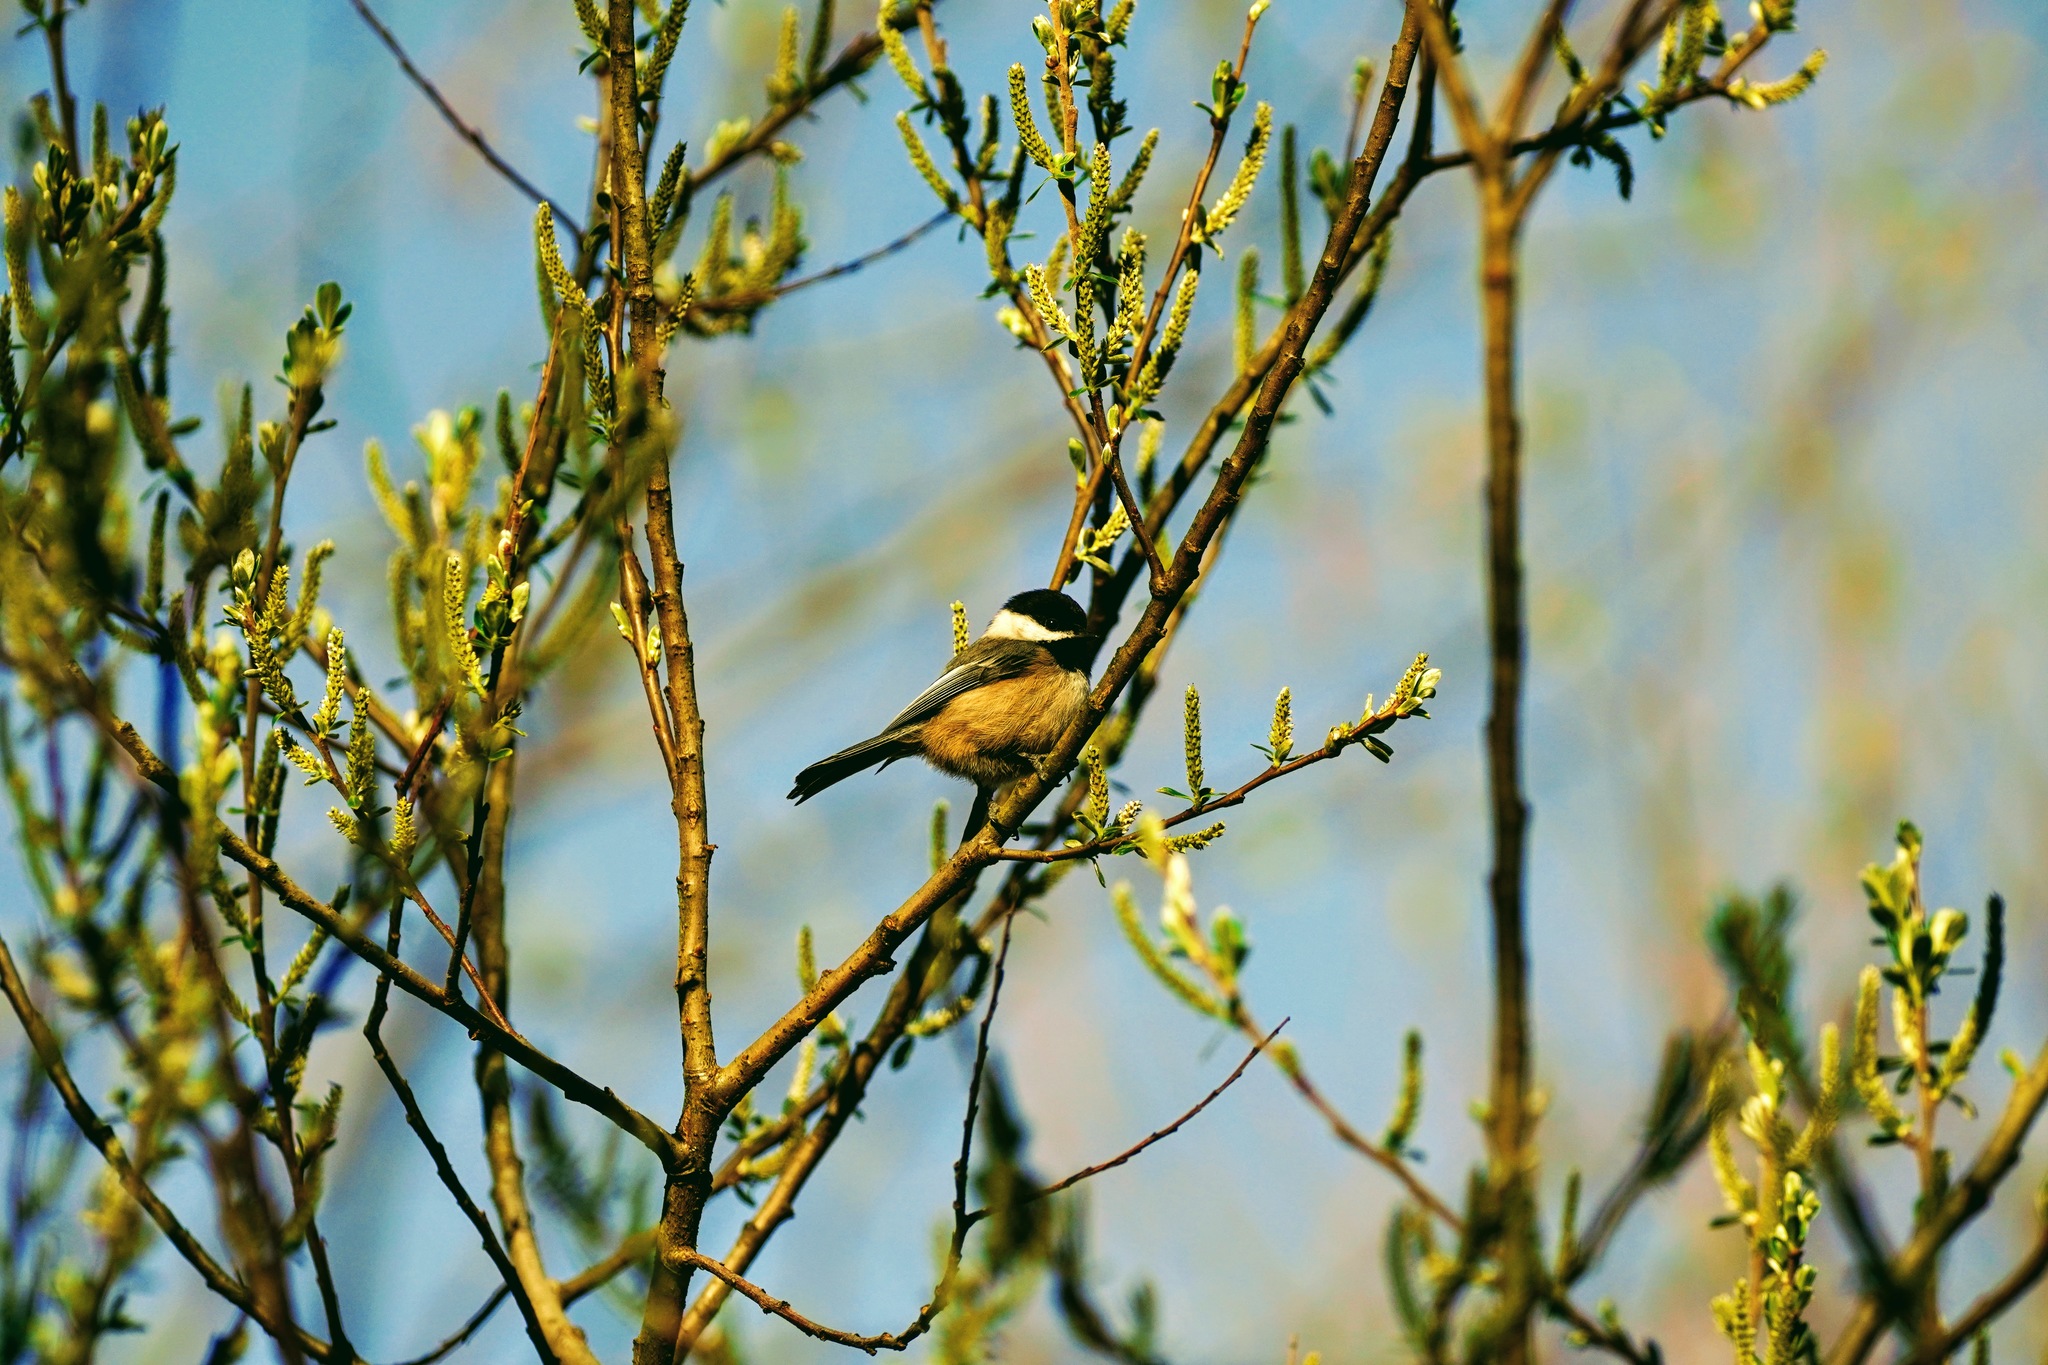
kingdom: Animalia
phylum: Chordata
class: Aves
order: Passeriformes
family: Paridae
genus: Poecile
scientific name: Poecile atricapillus
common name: Black-capped chickadee
